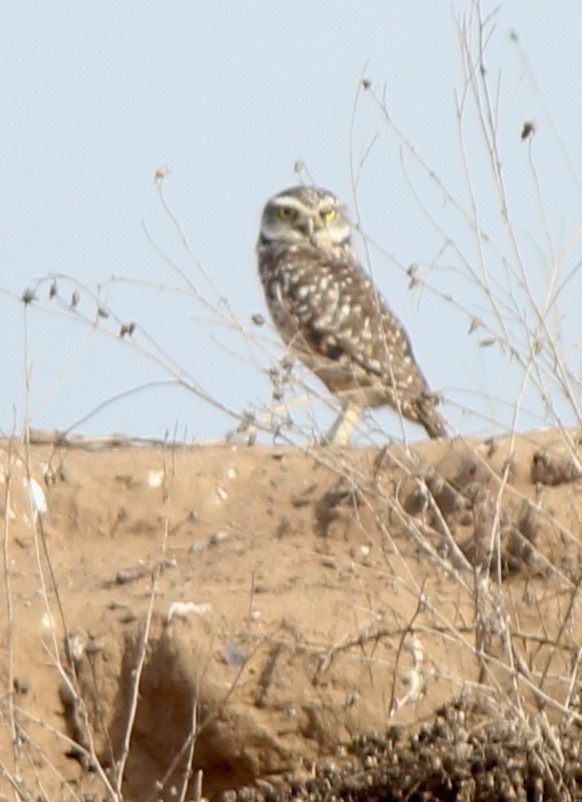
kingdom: Animalia
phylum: Chordata
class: Aves
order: Strigiformes
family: Strigidae
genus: Athene
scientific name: Athene cunicularia
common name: Burrowing owl
